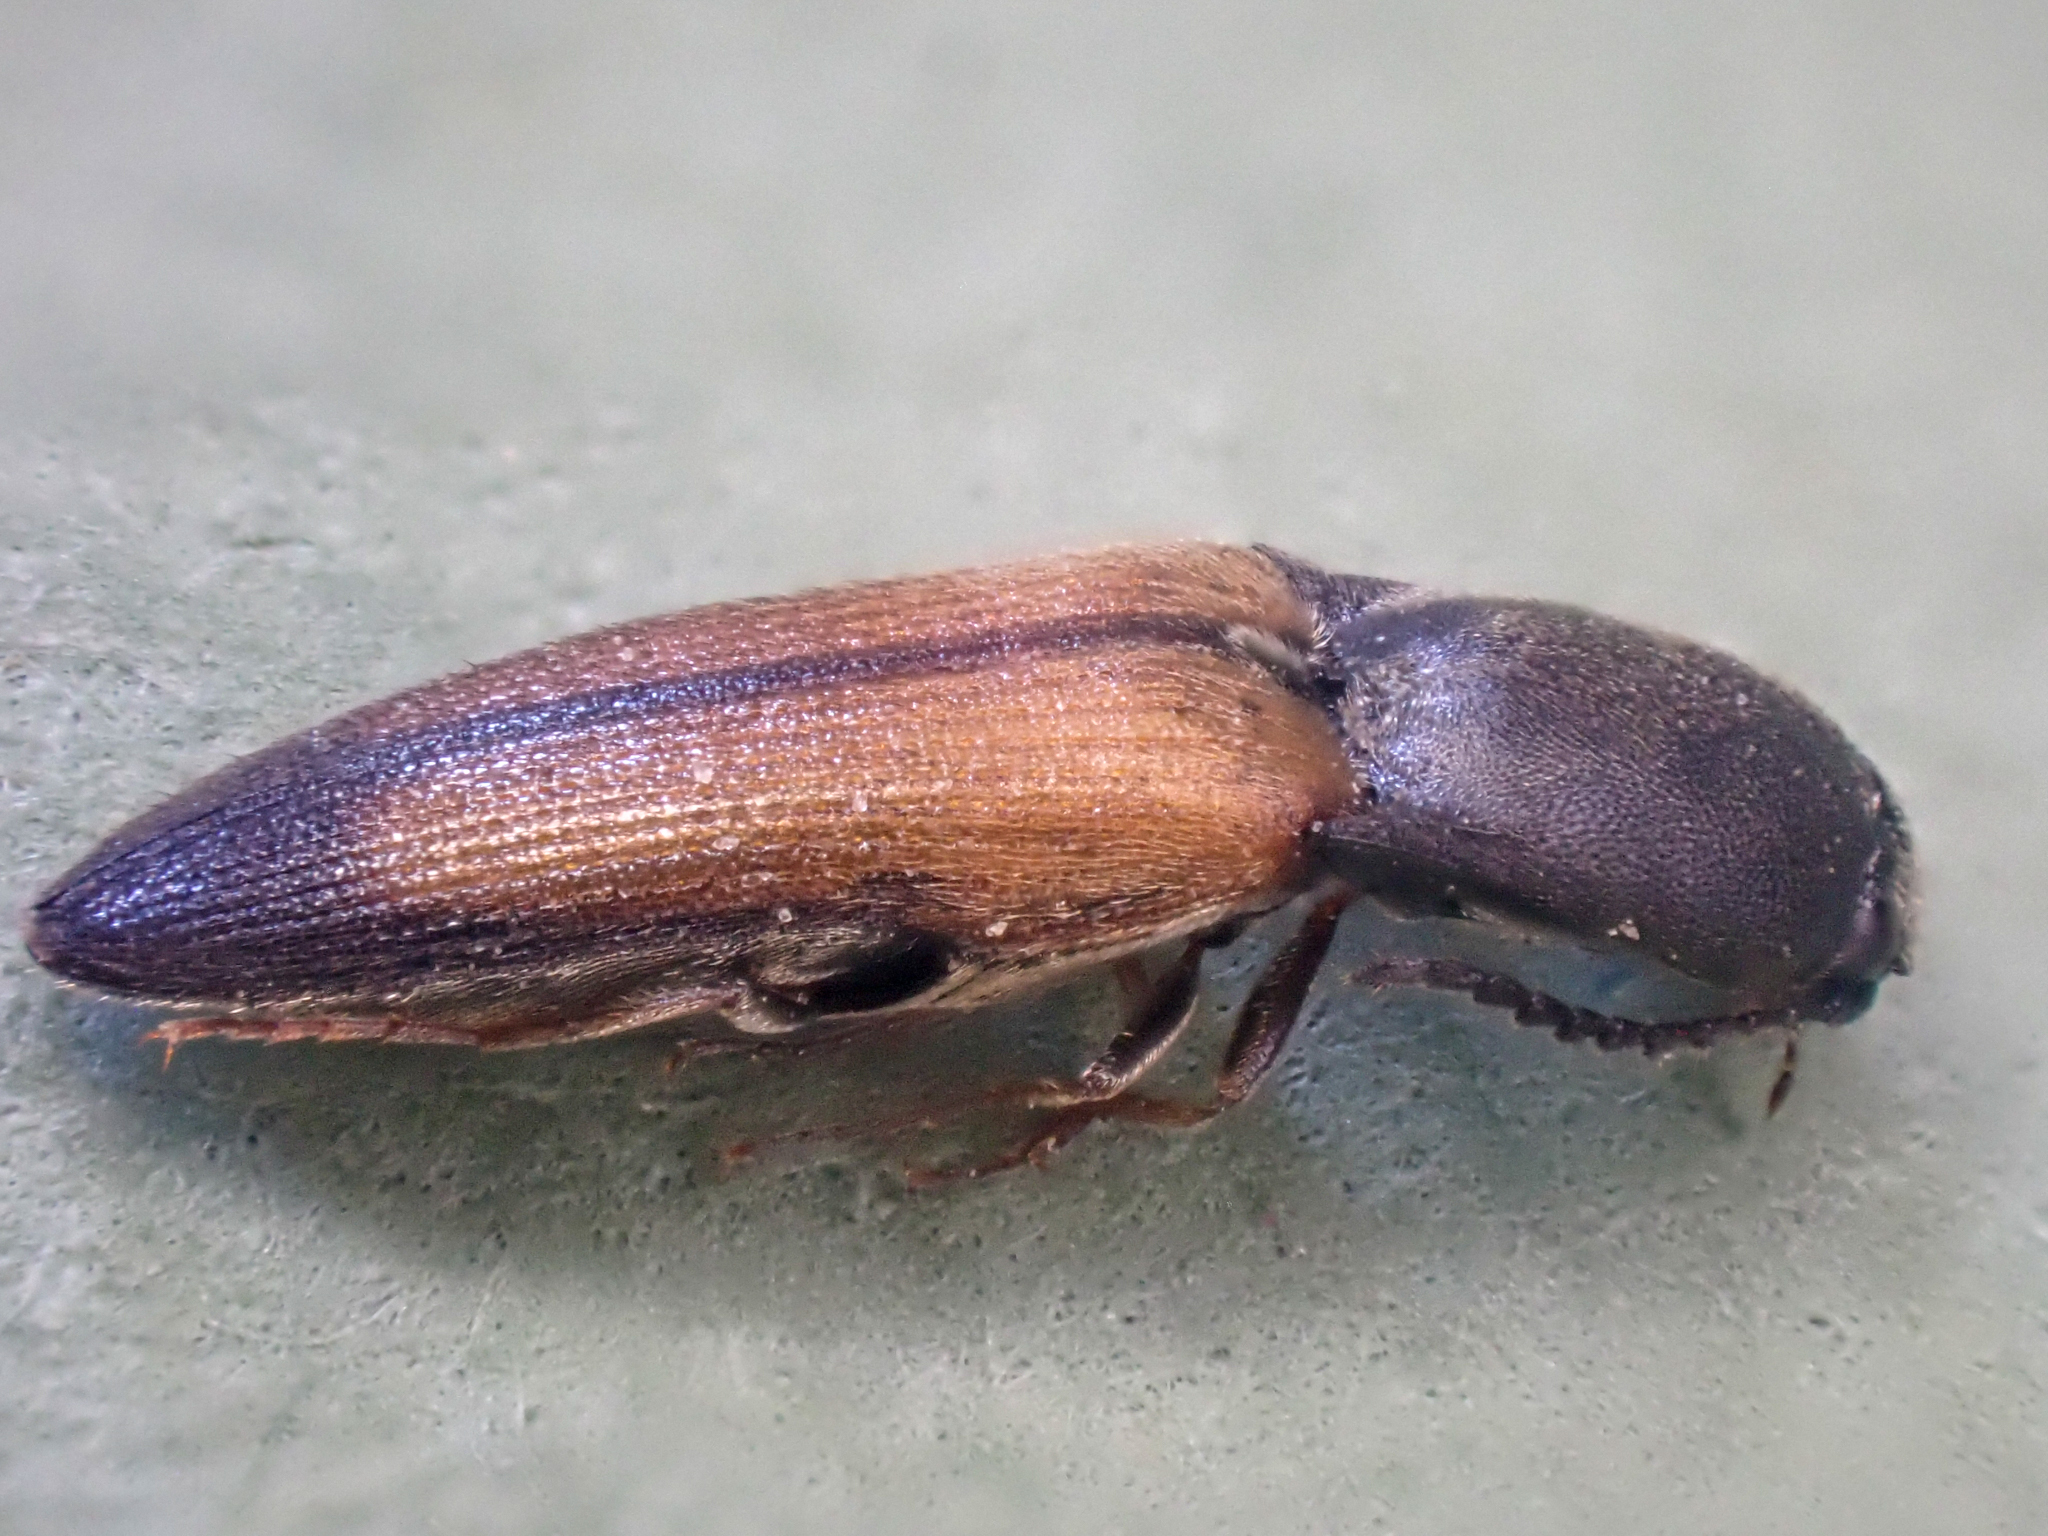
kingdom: Animalia
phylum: Arthropoda
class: Insecta
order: Coleoptera
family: Elateridae
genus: Agriotes
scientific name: Agriotes apicalis
